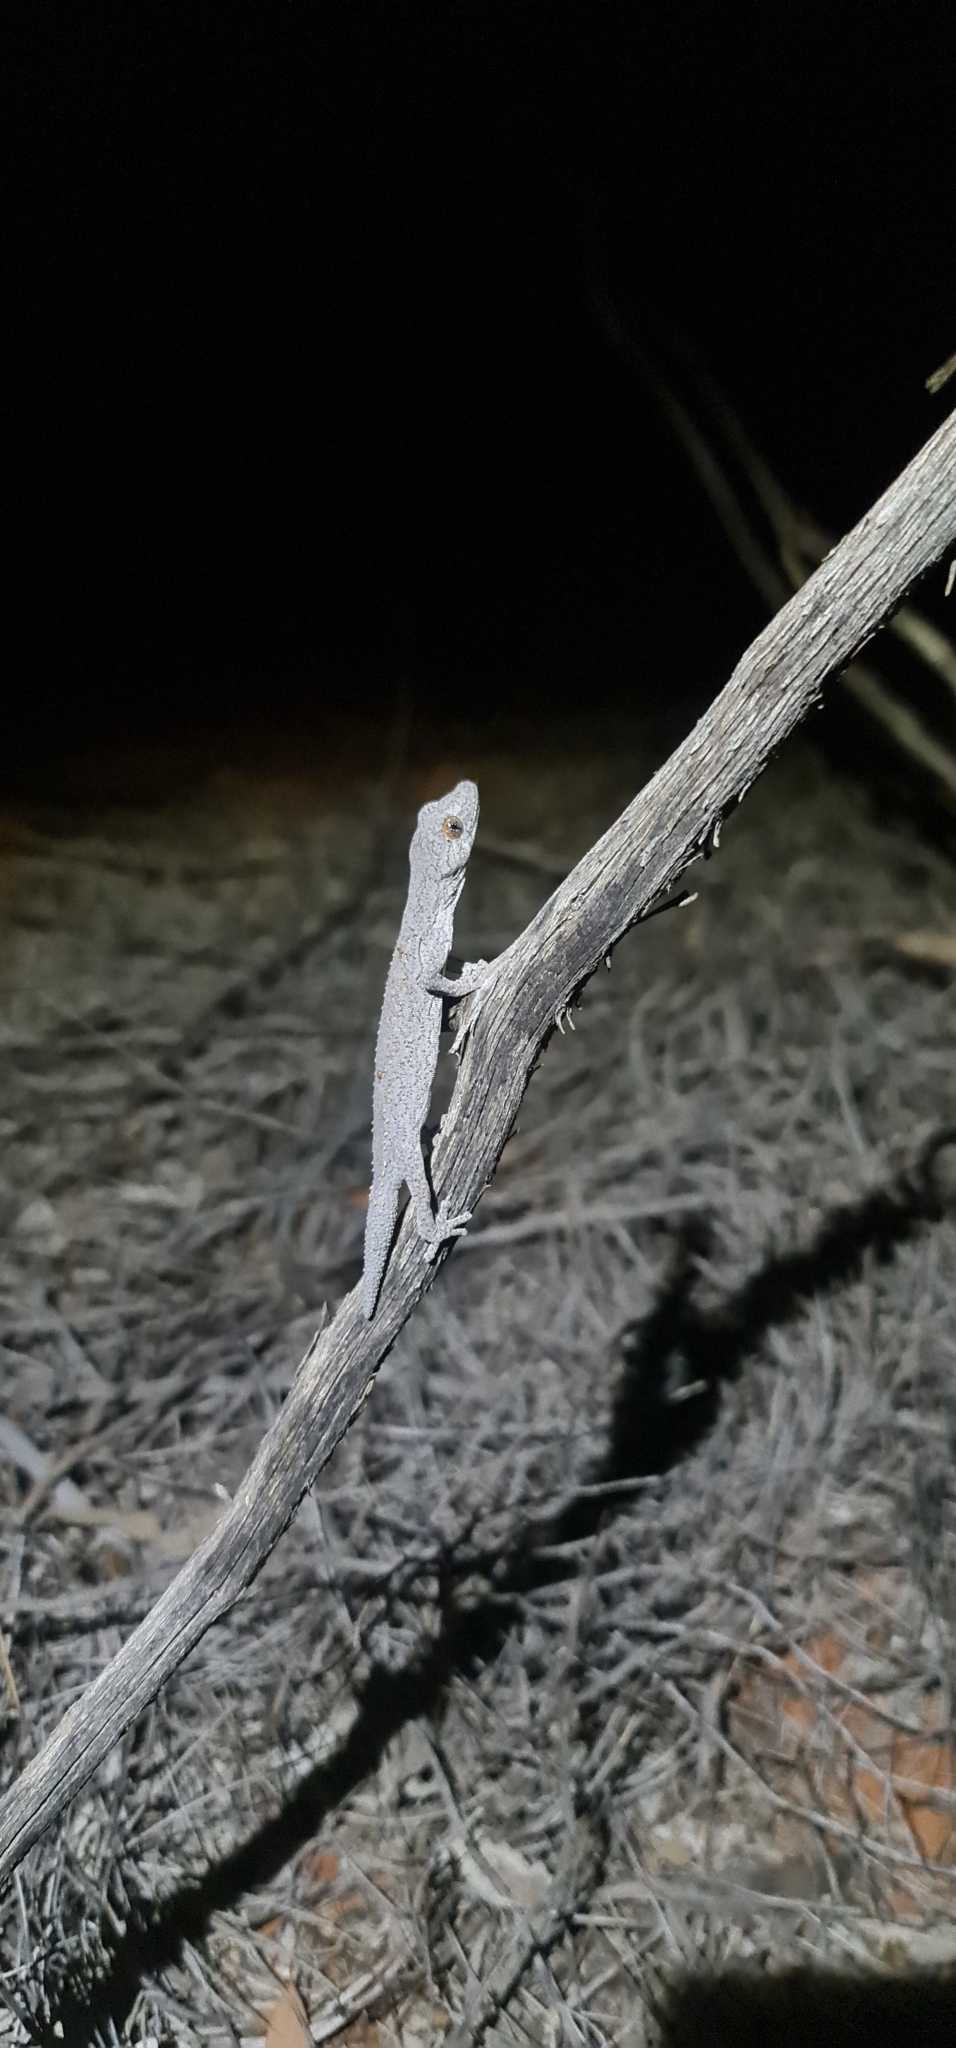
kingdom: Animalia
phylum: Chordata
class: Squamata
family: Diplodactylidae
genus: Strophurus
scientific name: Strophurus williamsi
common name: Eastern spiny-tailed gecko
